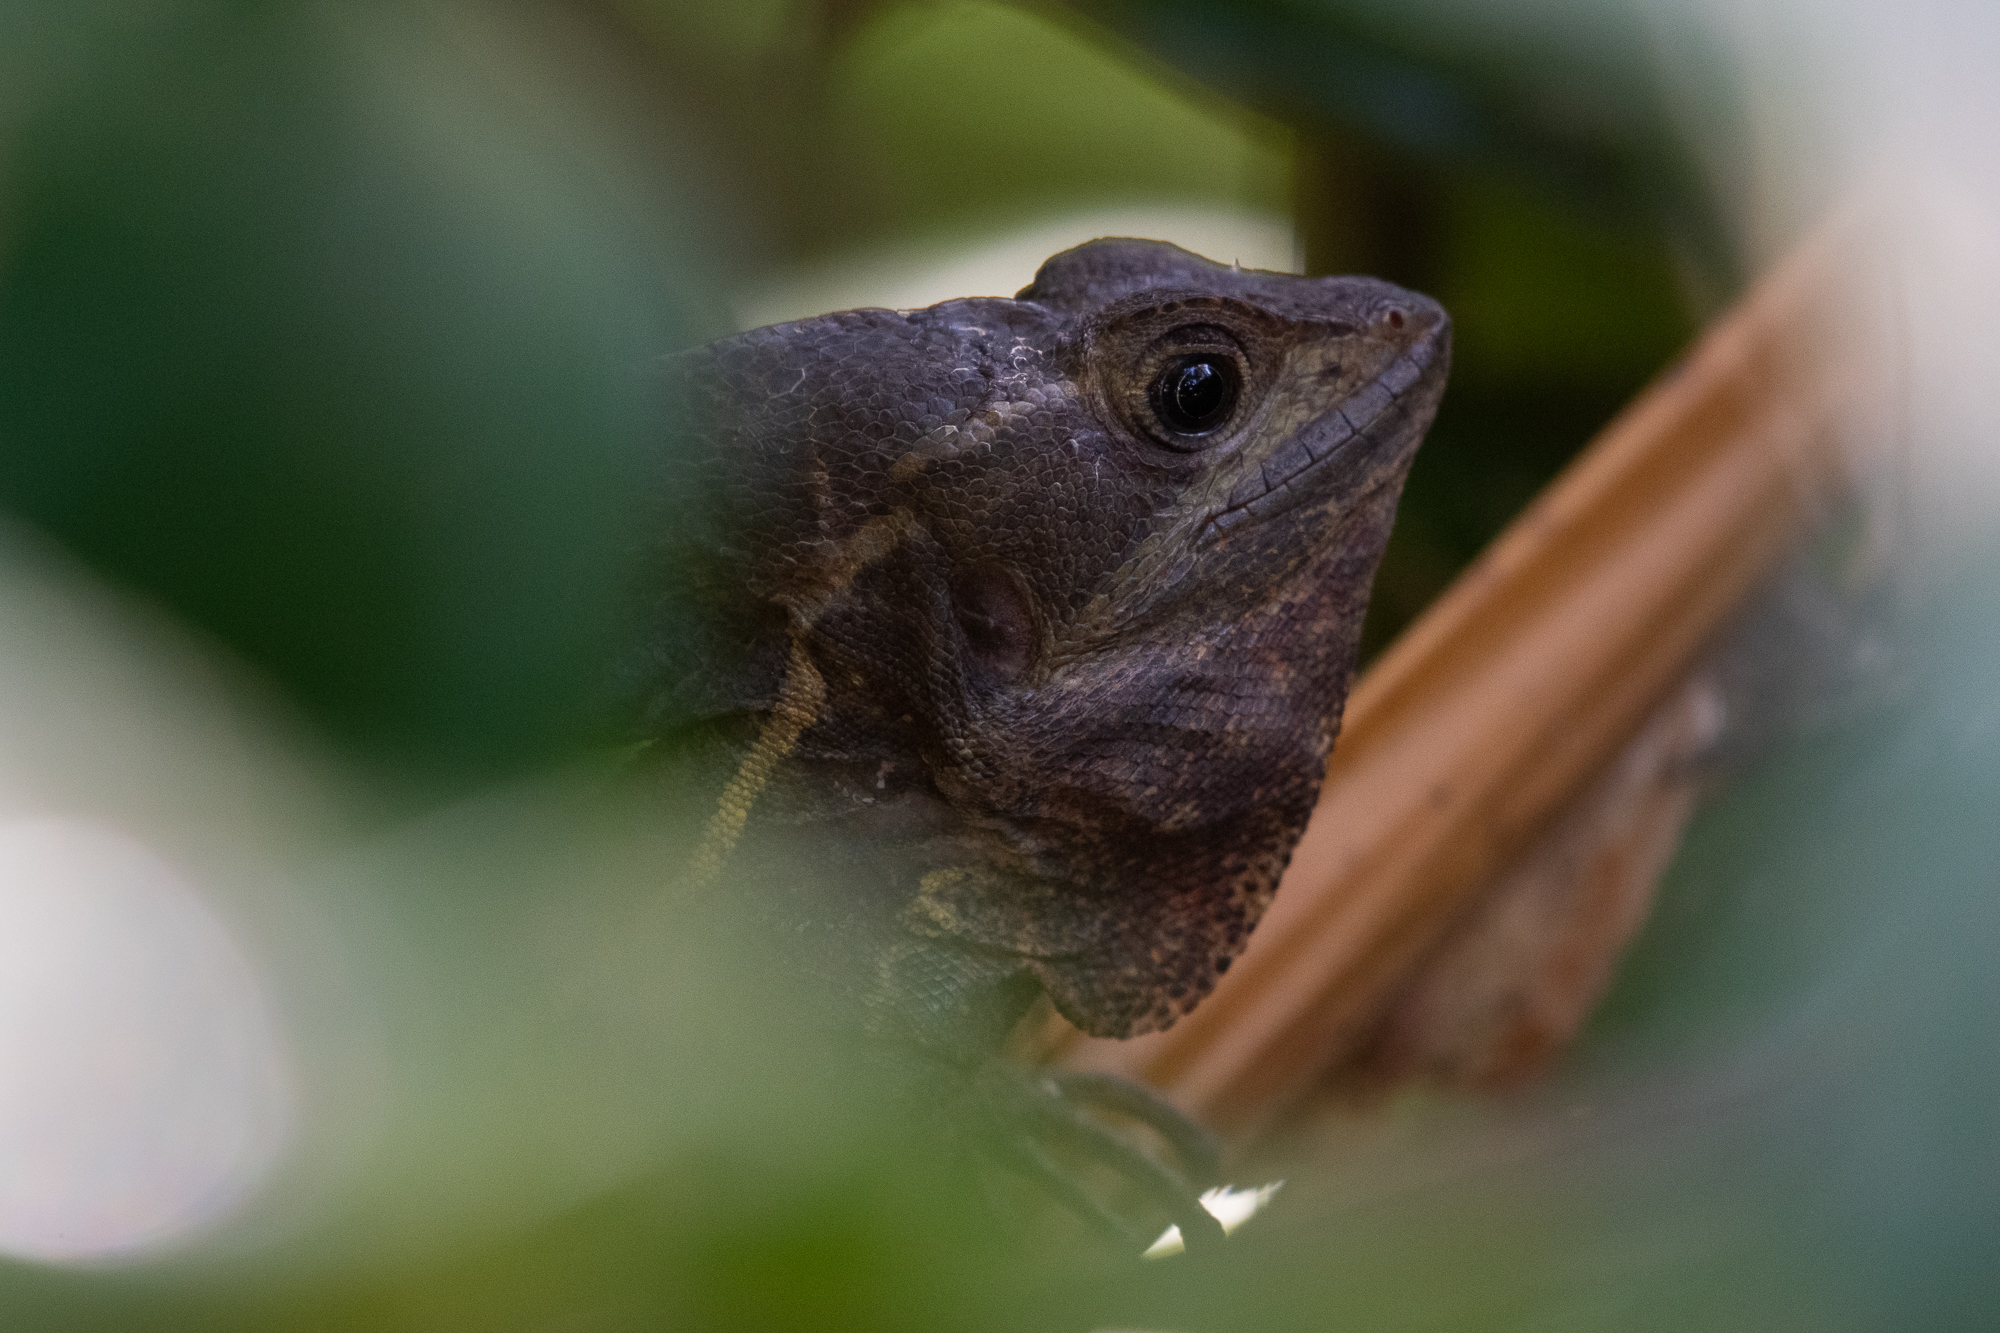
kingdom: Animalia
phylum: Chordata
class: Squamata
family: Corytophanidae
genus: Basiliscus
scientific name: Basiliscus vittatus
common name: Brown basilisk
